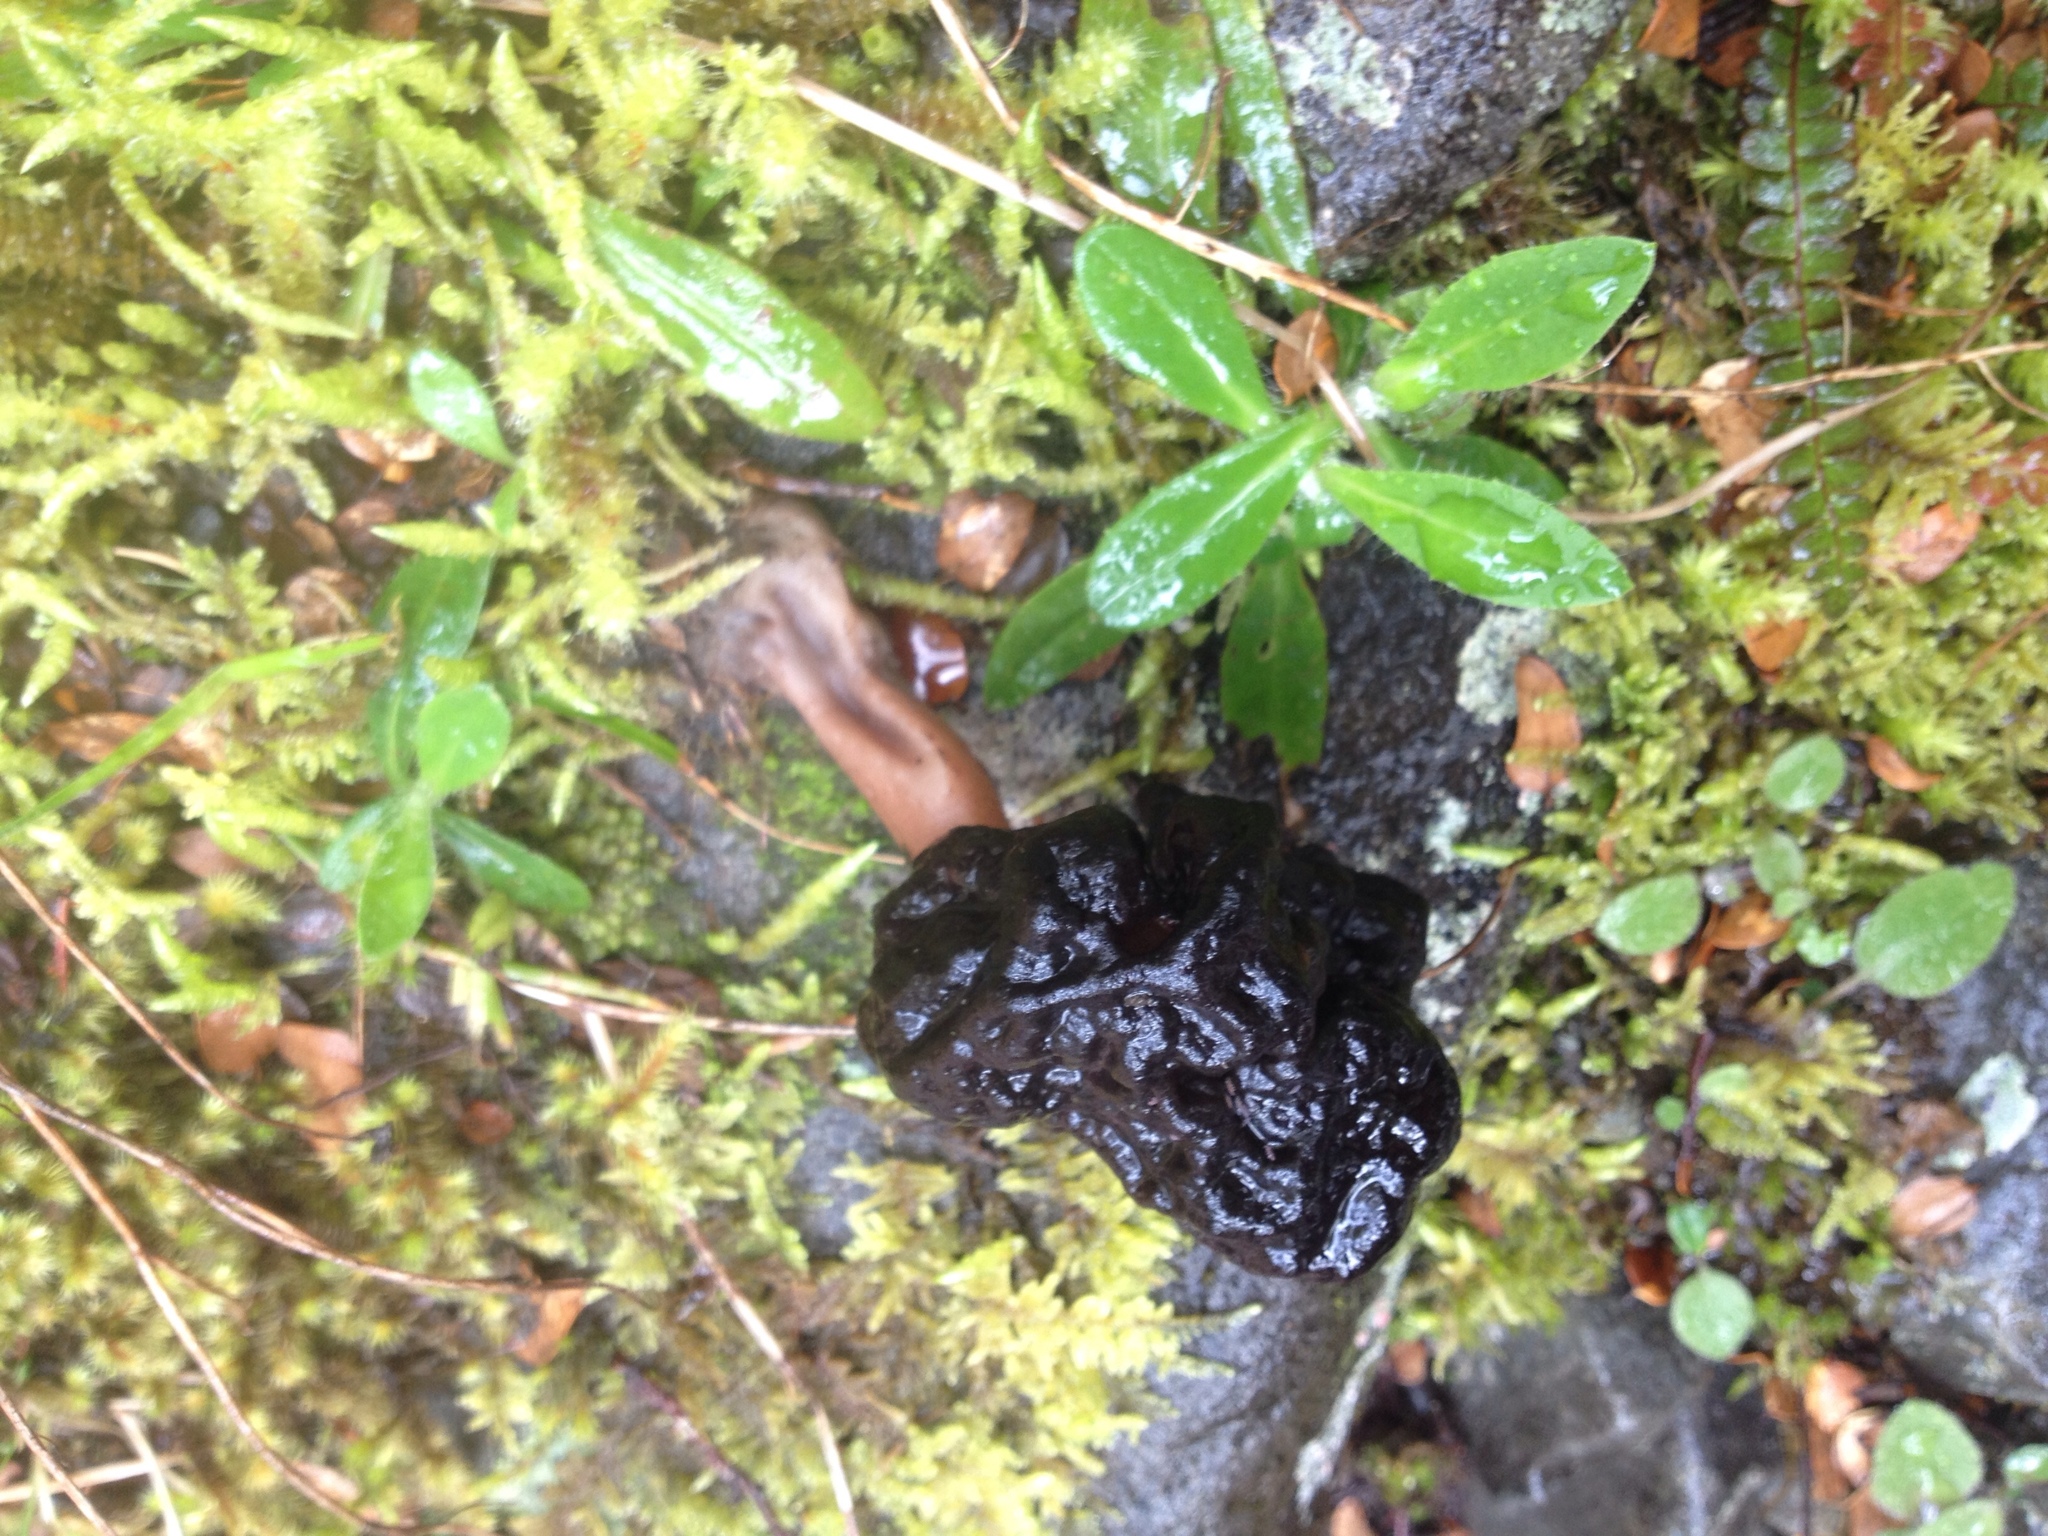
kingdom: Fungi
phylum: Ascomycota
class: Pezizomycetes
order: Pezizales
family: Discinaceae
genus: Gyromitra
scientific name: Gyromitra tasmanica
